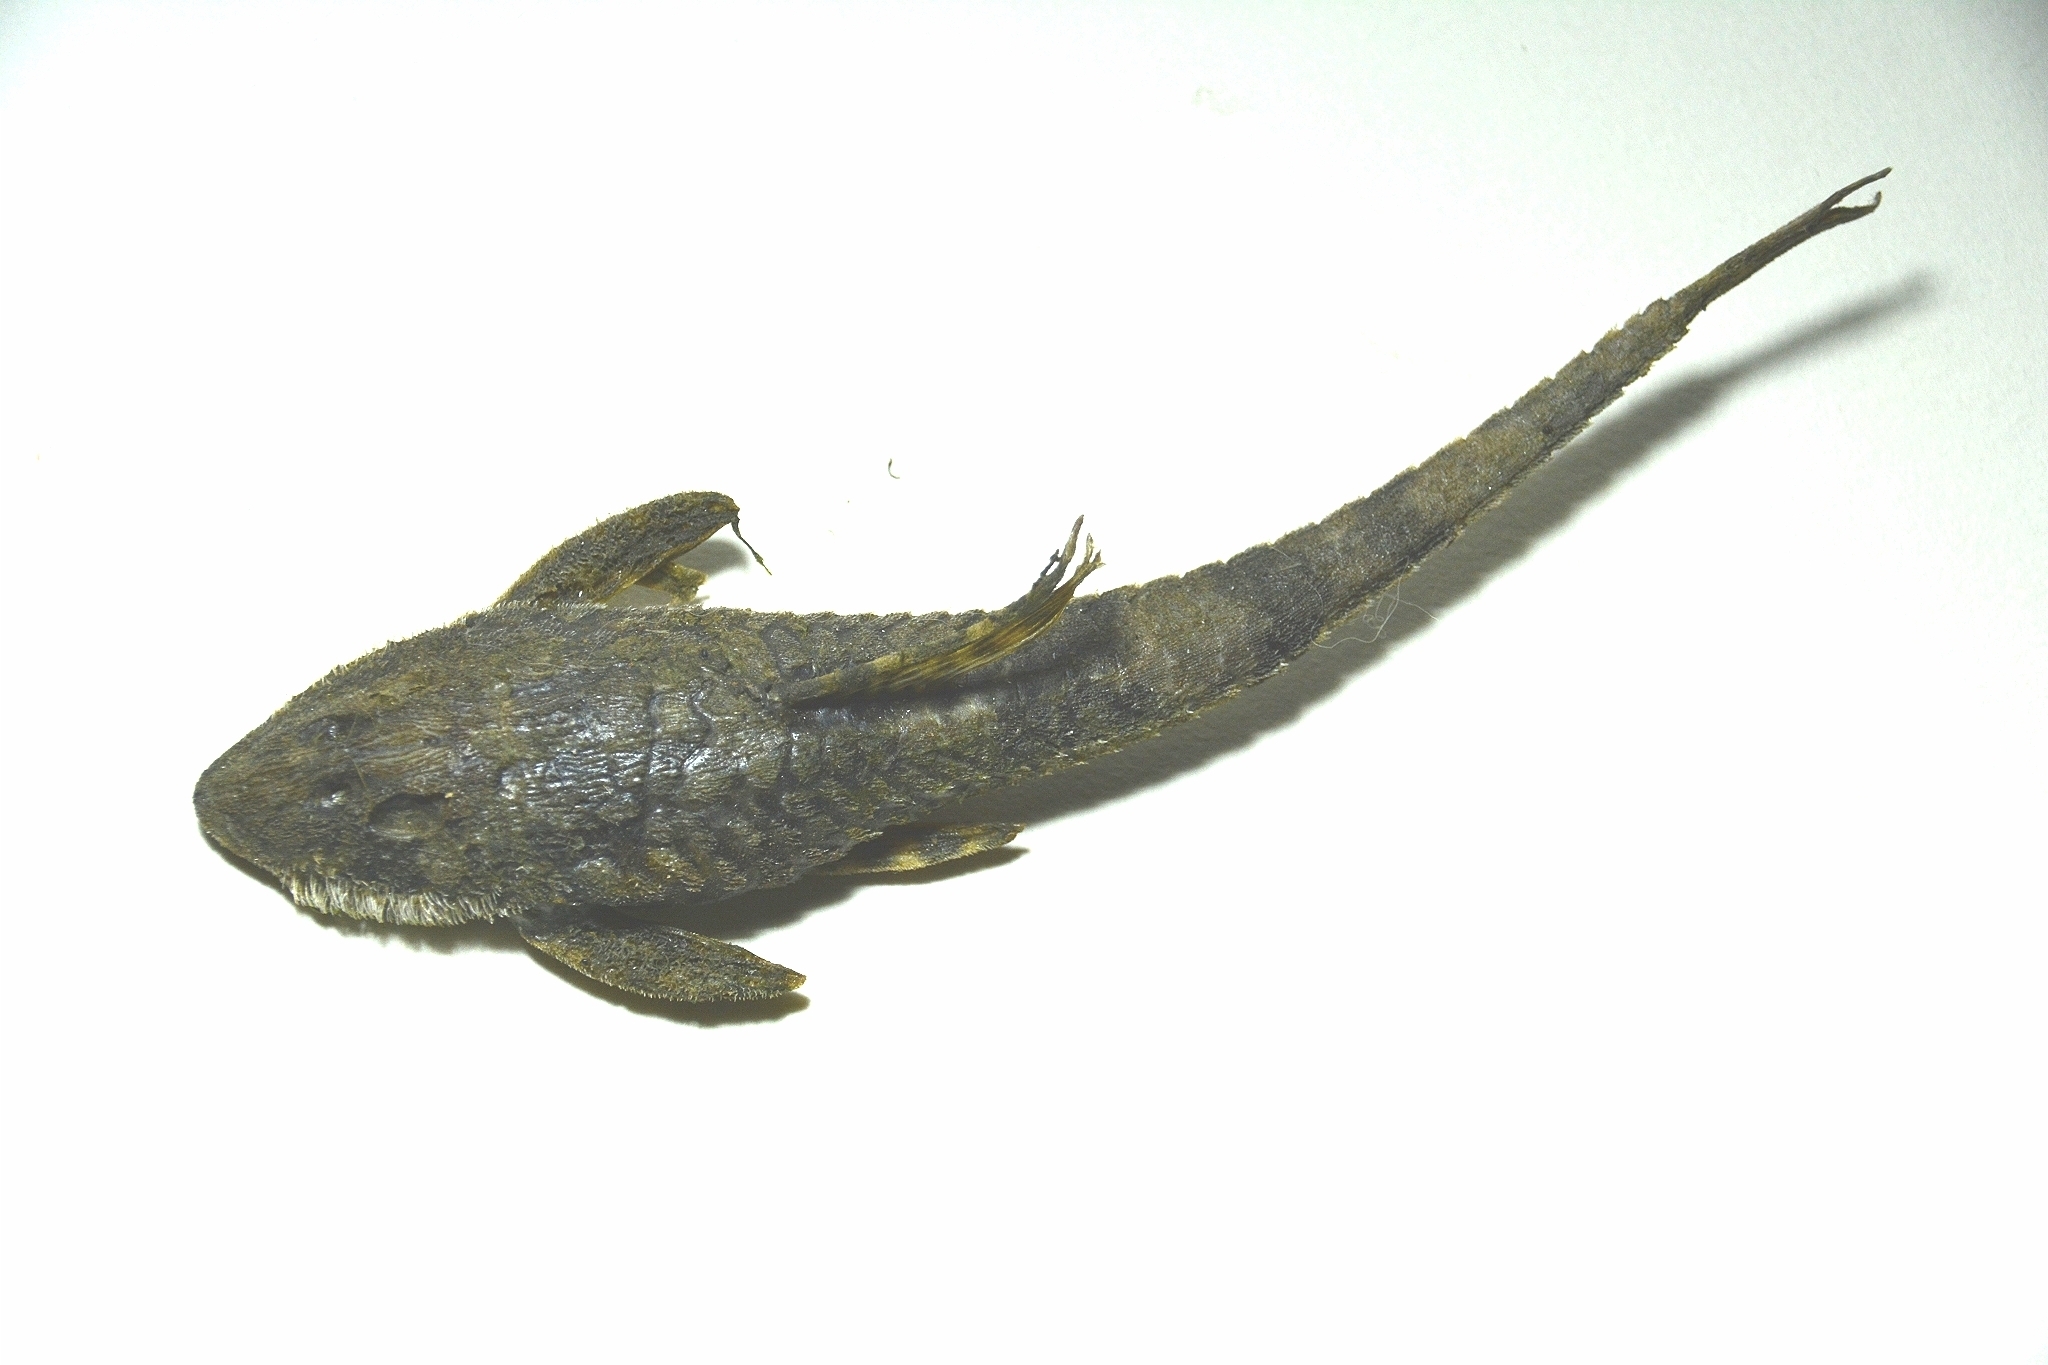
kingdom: Animalia
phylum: Chordata
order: Siluriformes
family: Loricariidae
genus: Rineloricaria
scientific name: Rineloricaria catamarcensis
